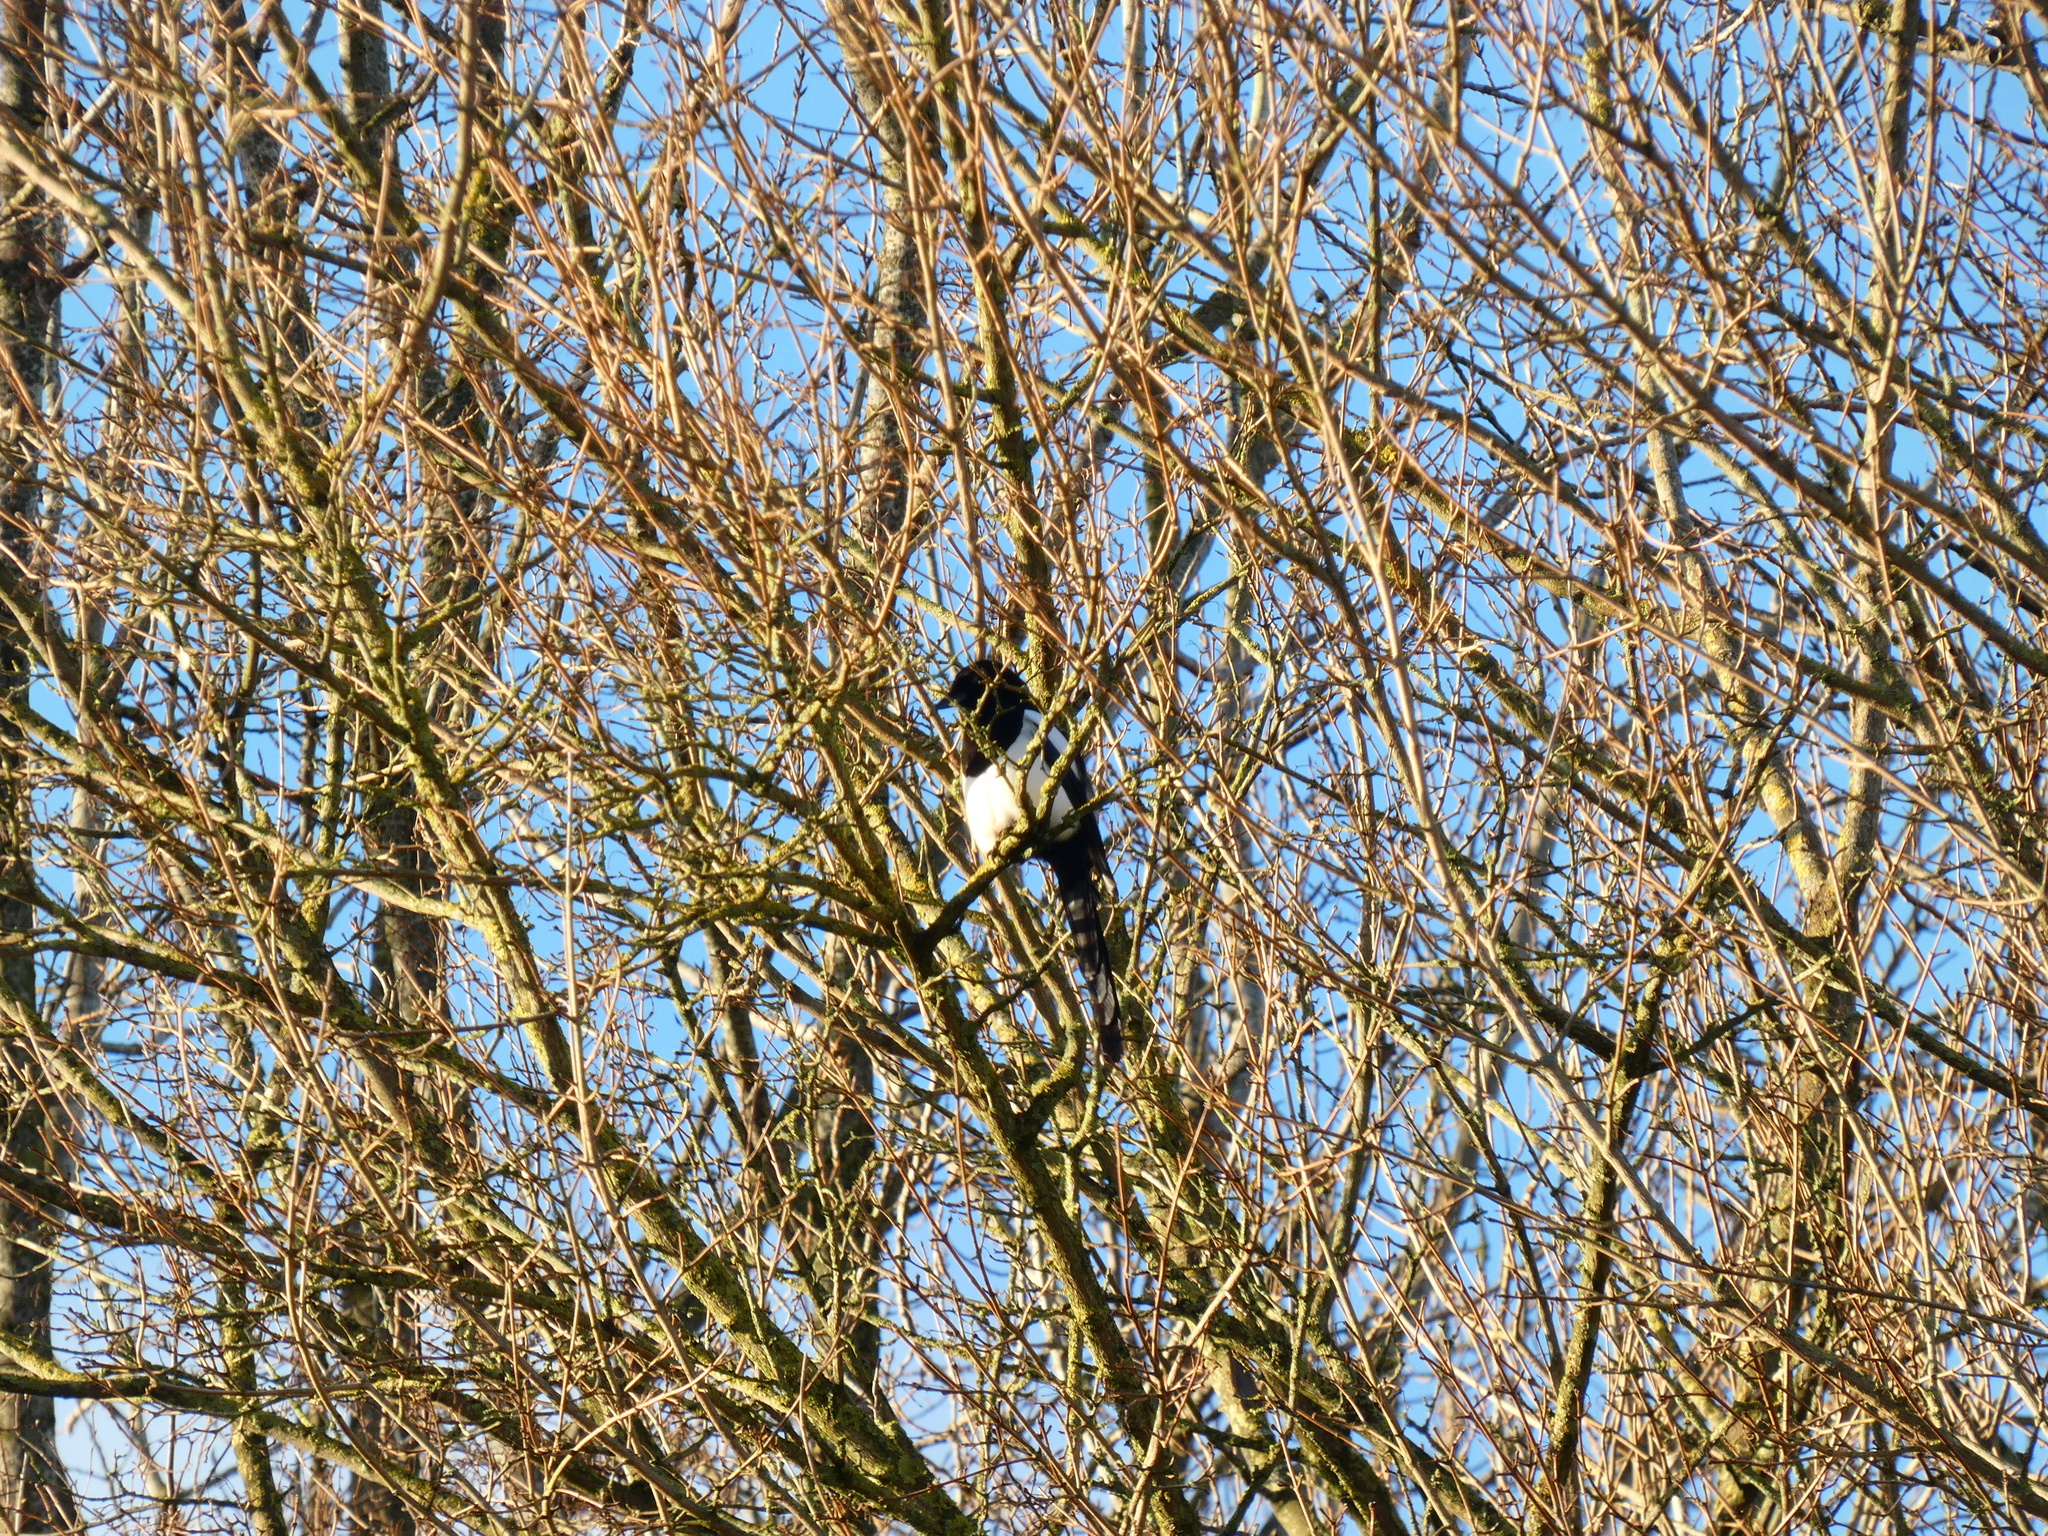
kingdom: Animalia
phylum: Chordata
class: Aves
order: Passeriformes
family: Corvidae
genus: Pica
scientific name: Pica pica
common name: Eurasian magpie
